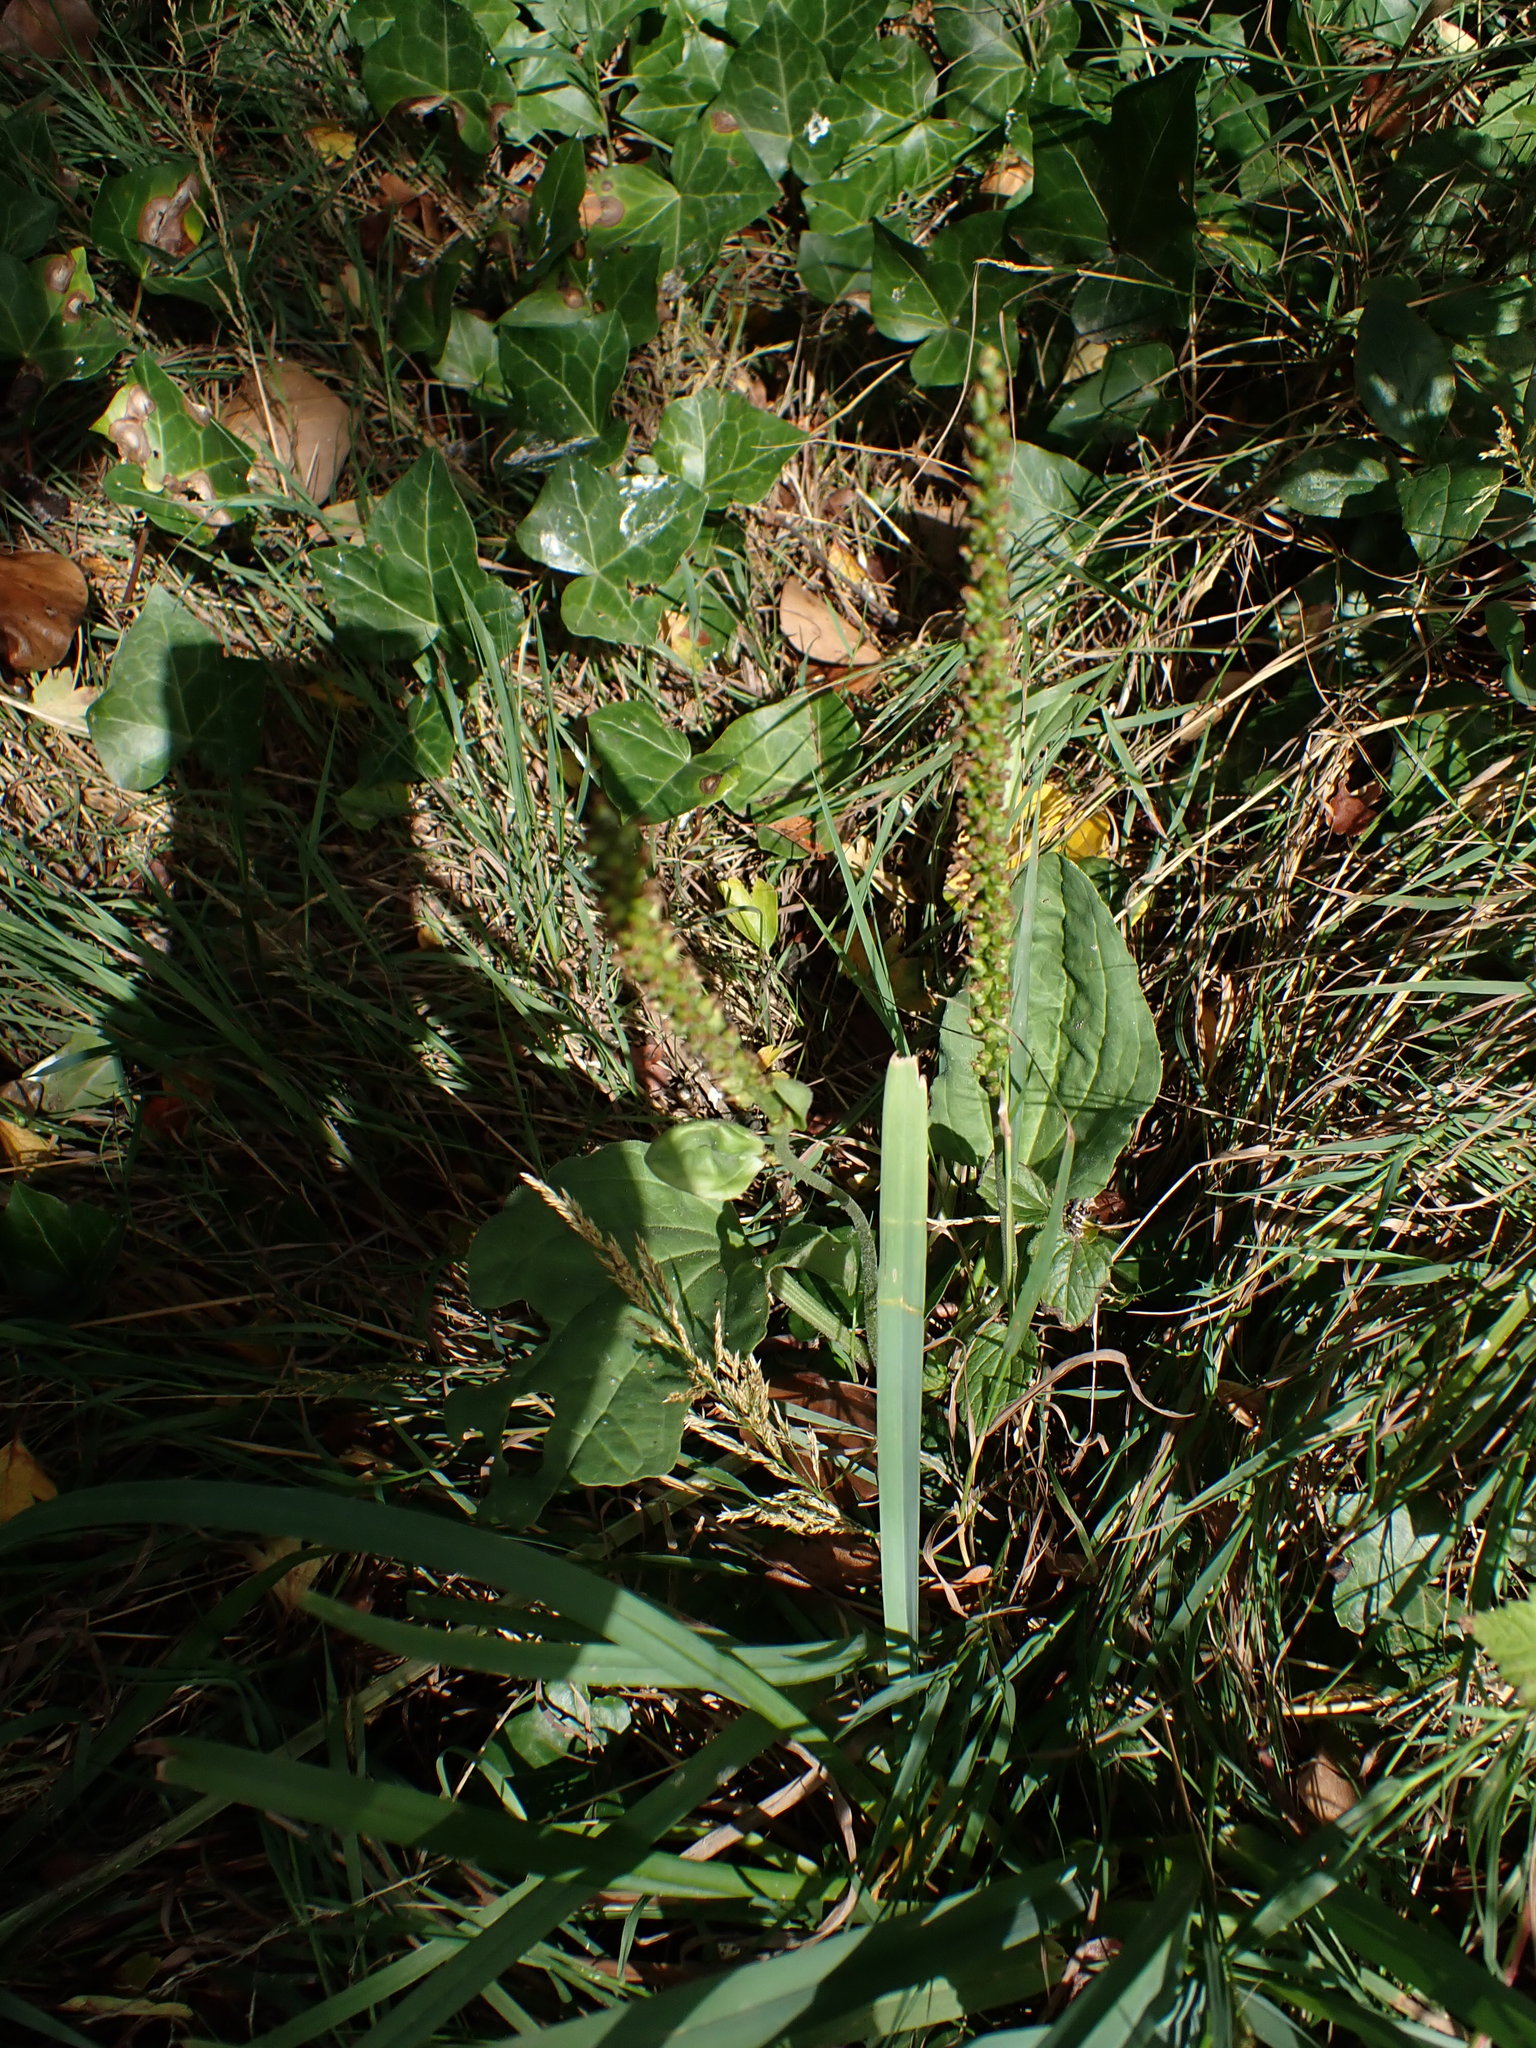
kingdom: Plantae
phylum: Tracheophyta
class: Magnoliopsida
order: Lamiales
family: Plantaginaceae
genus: Plantago
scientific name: Plantago major
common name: Common plantain
